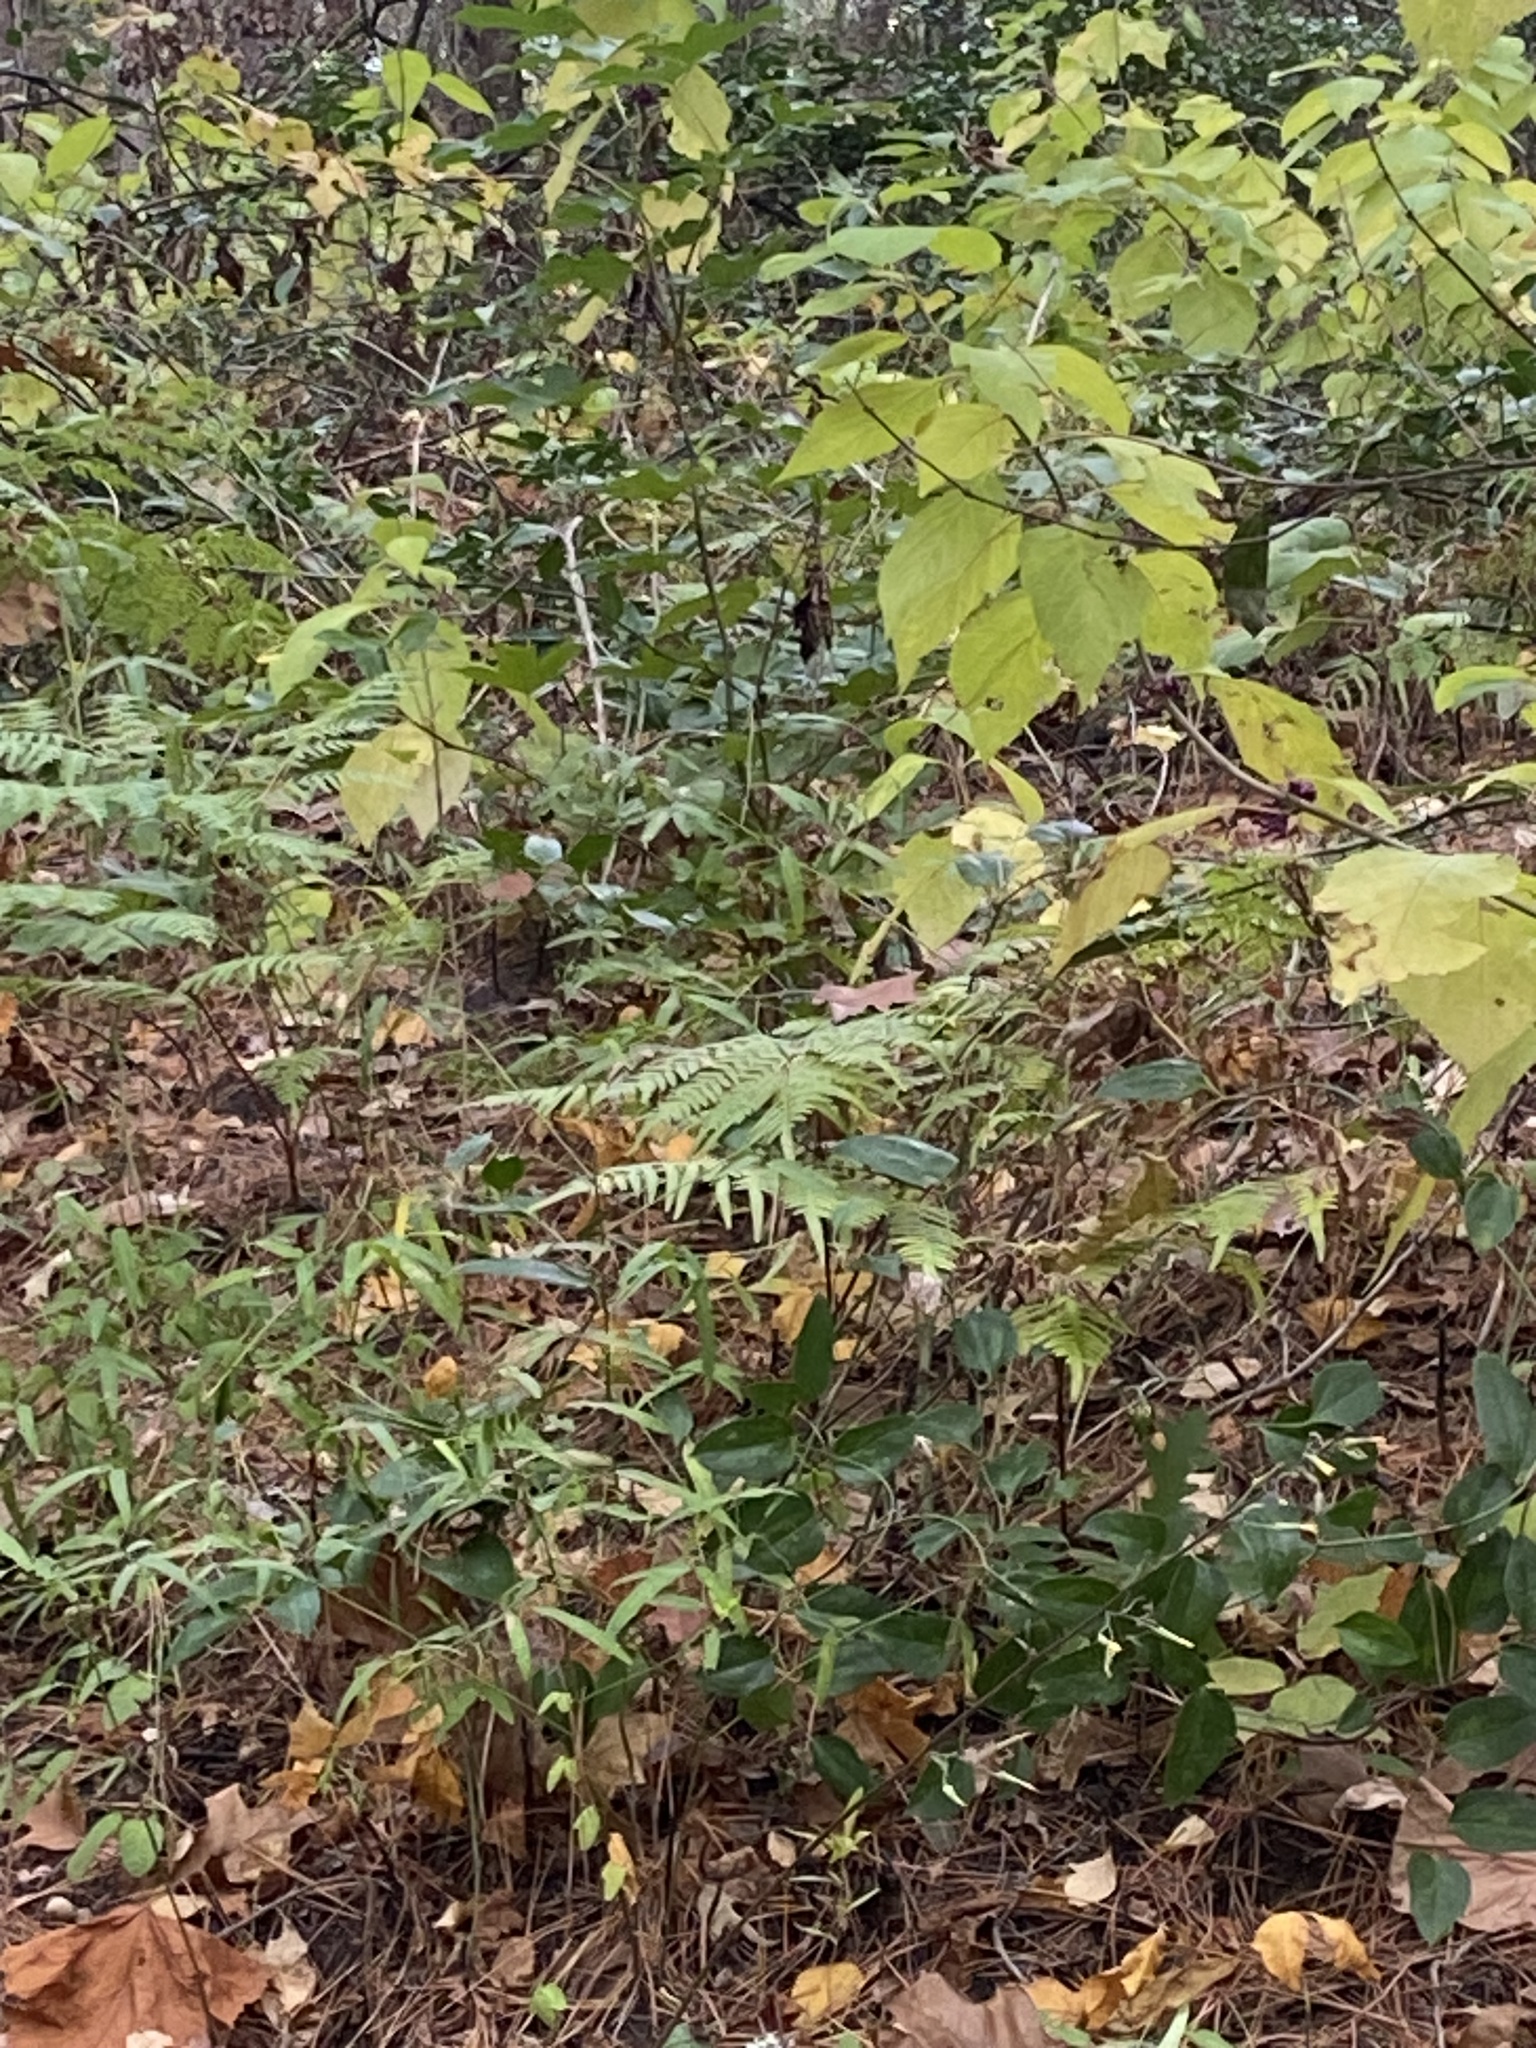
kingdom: Plantae
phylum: Tracheophyta
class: Polypodiopsida
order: Polypodiales
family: Dennstaedtiaceae
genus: Pteridium
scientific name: Pteridium
